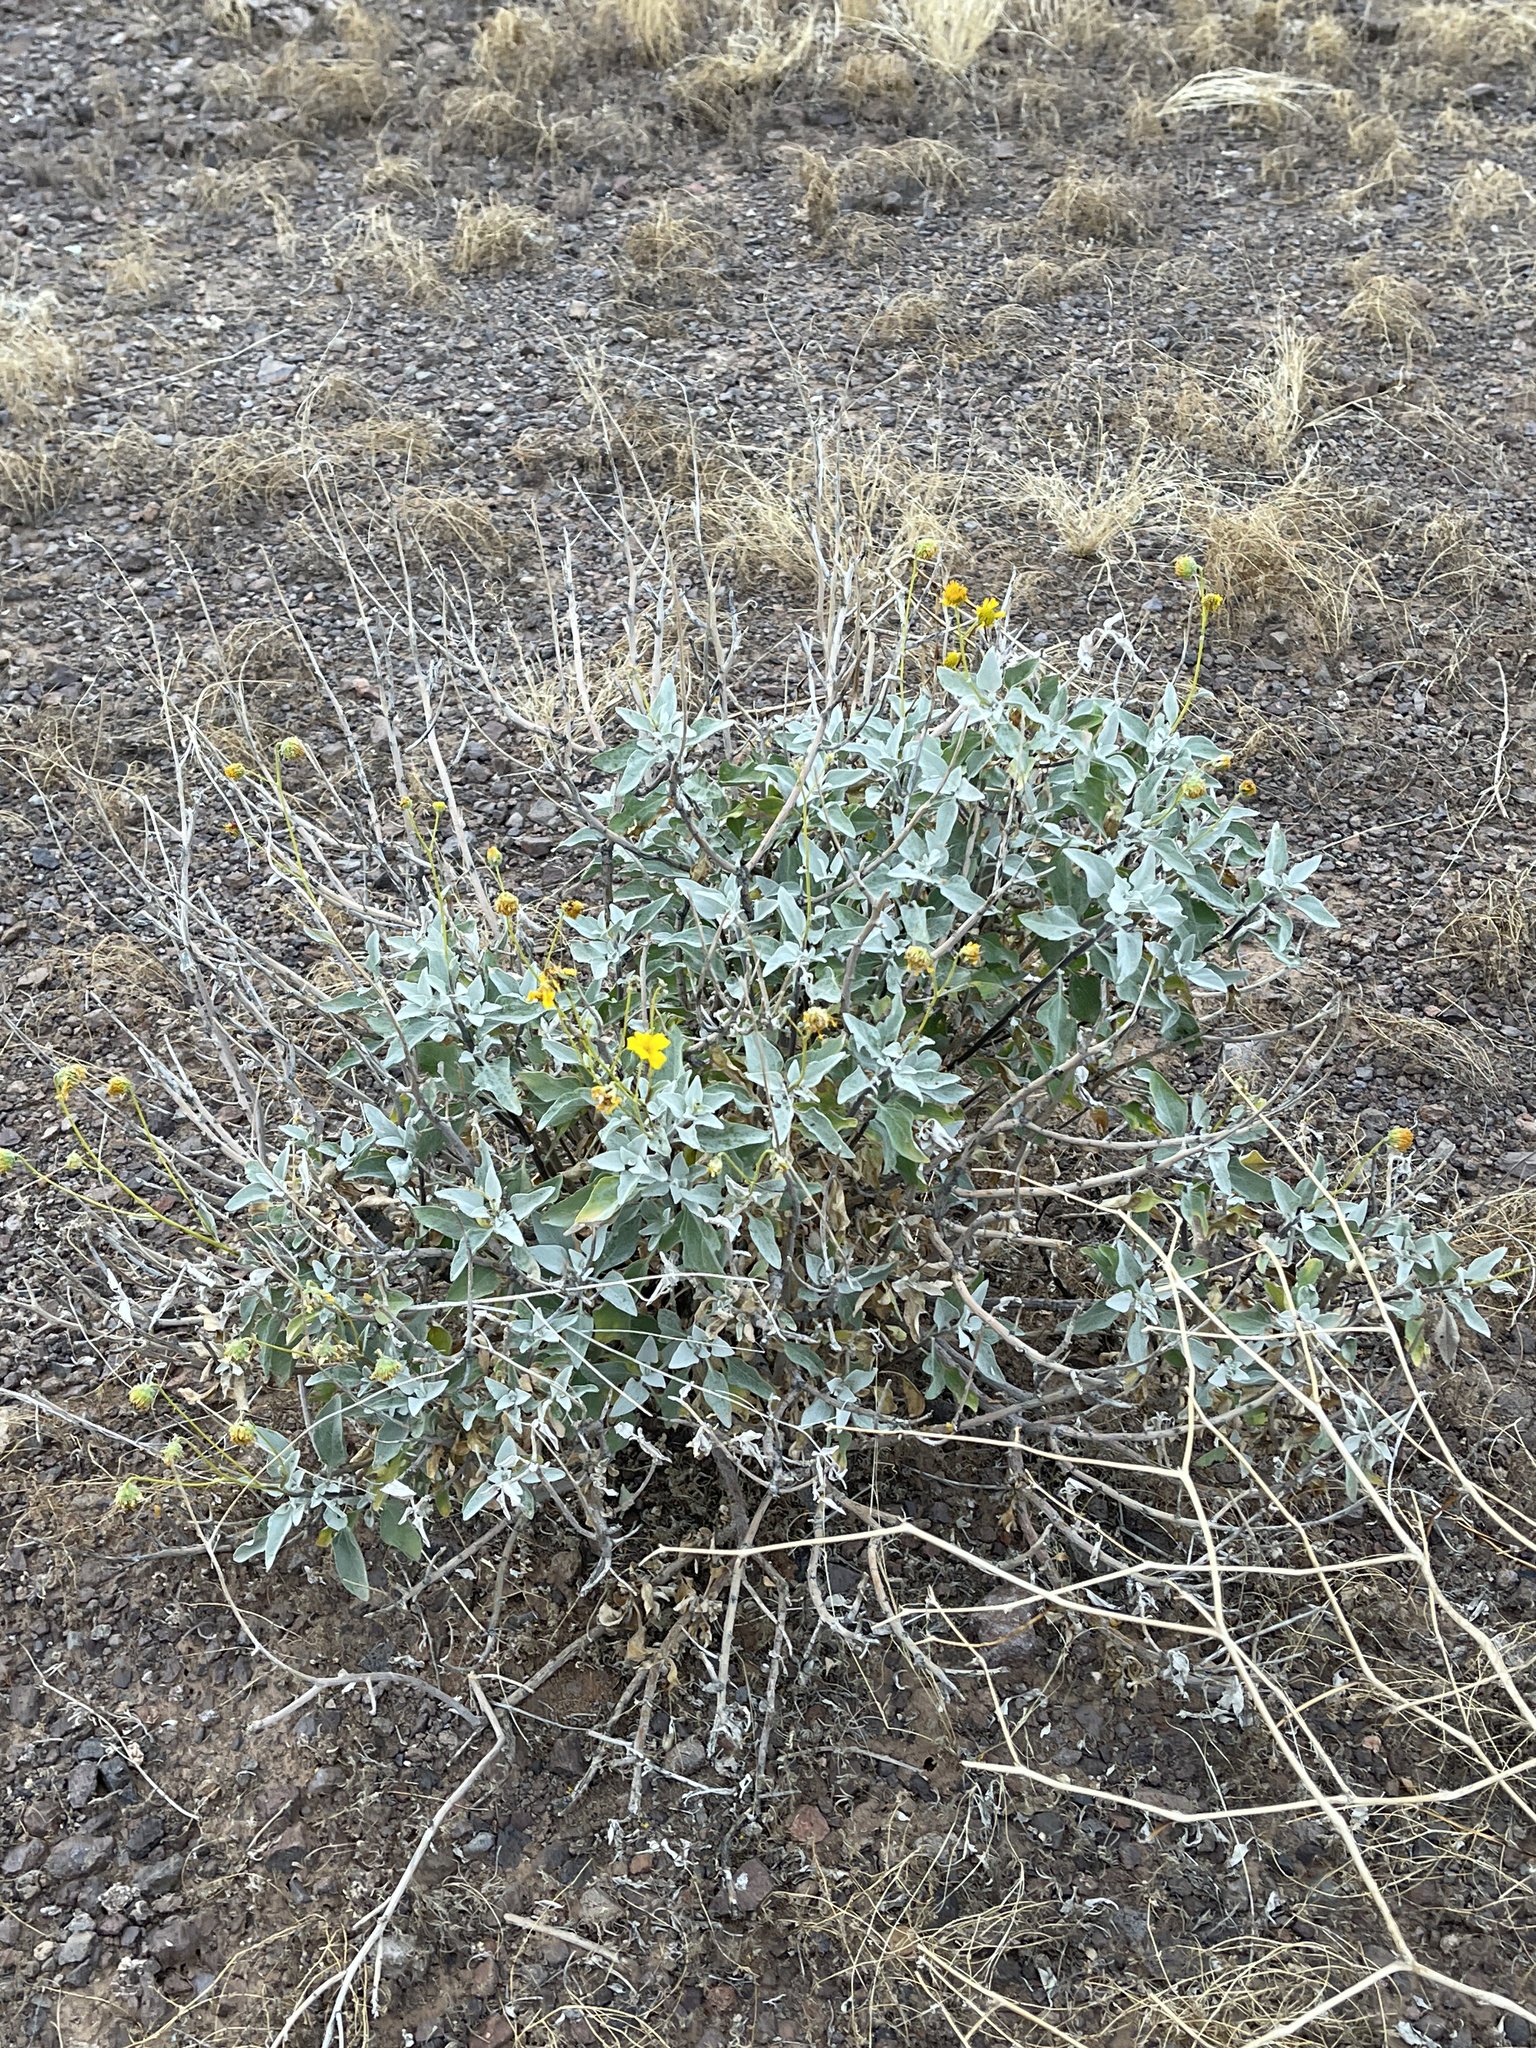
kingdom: Plantae
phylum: Tracheophyta
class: Magnoliopsida
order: Asterales
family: Asteraceae
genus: Encelia
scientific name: Encelia farinosa
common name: Brittlebush
